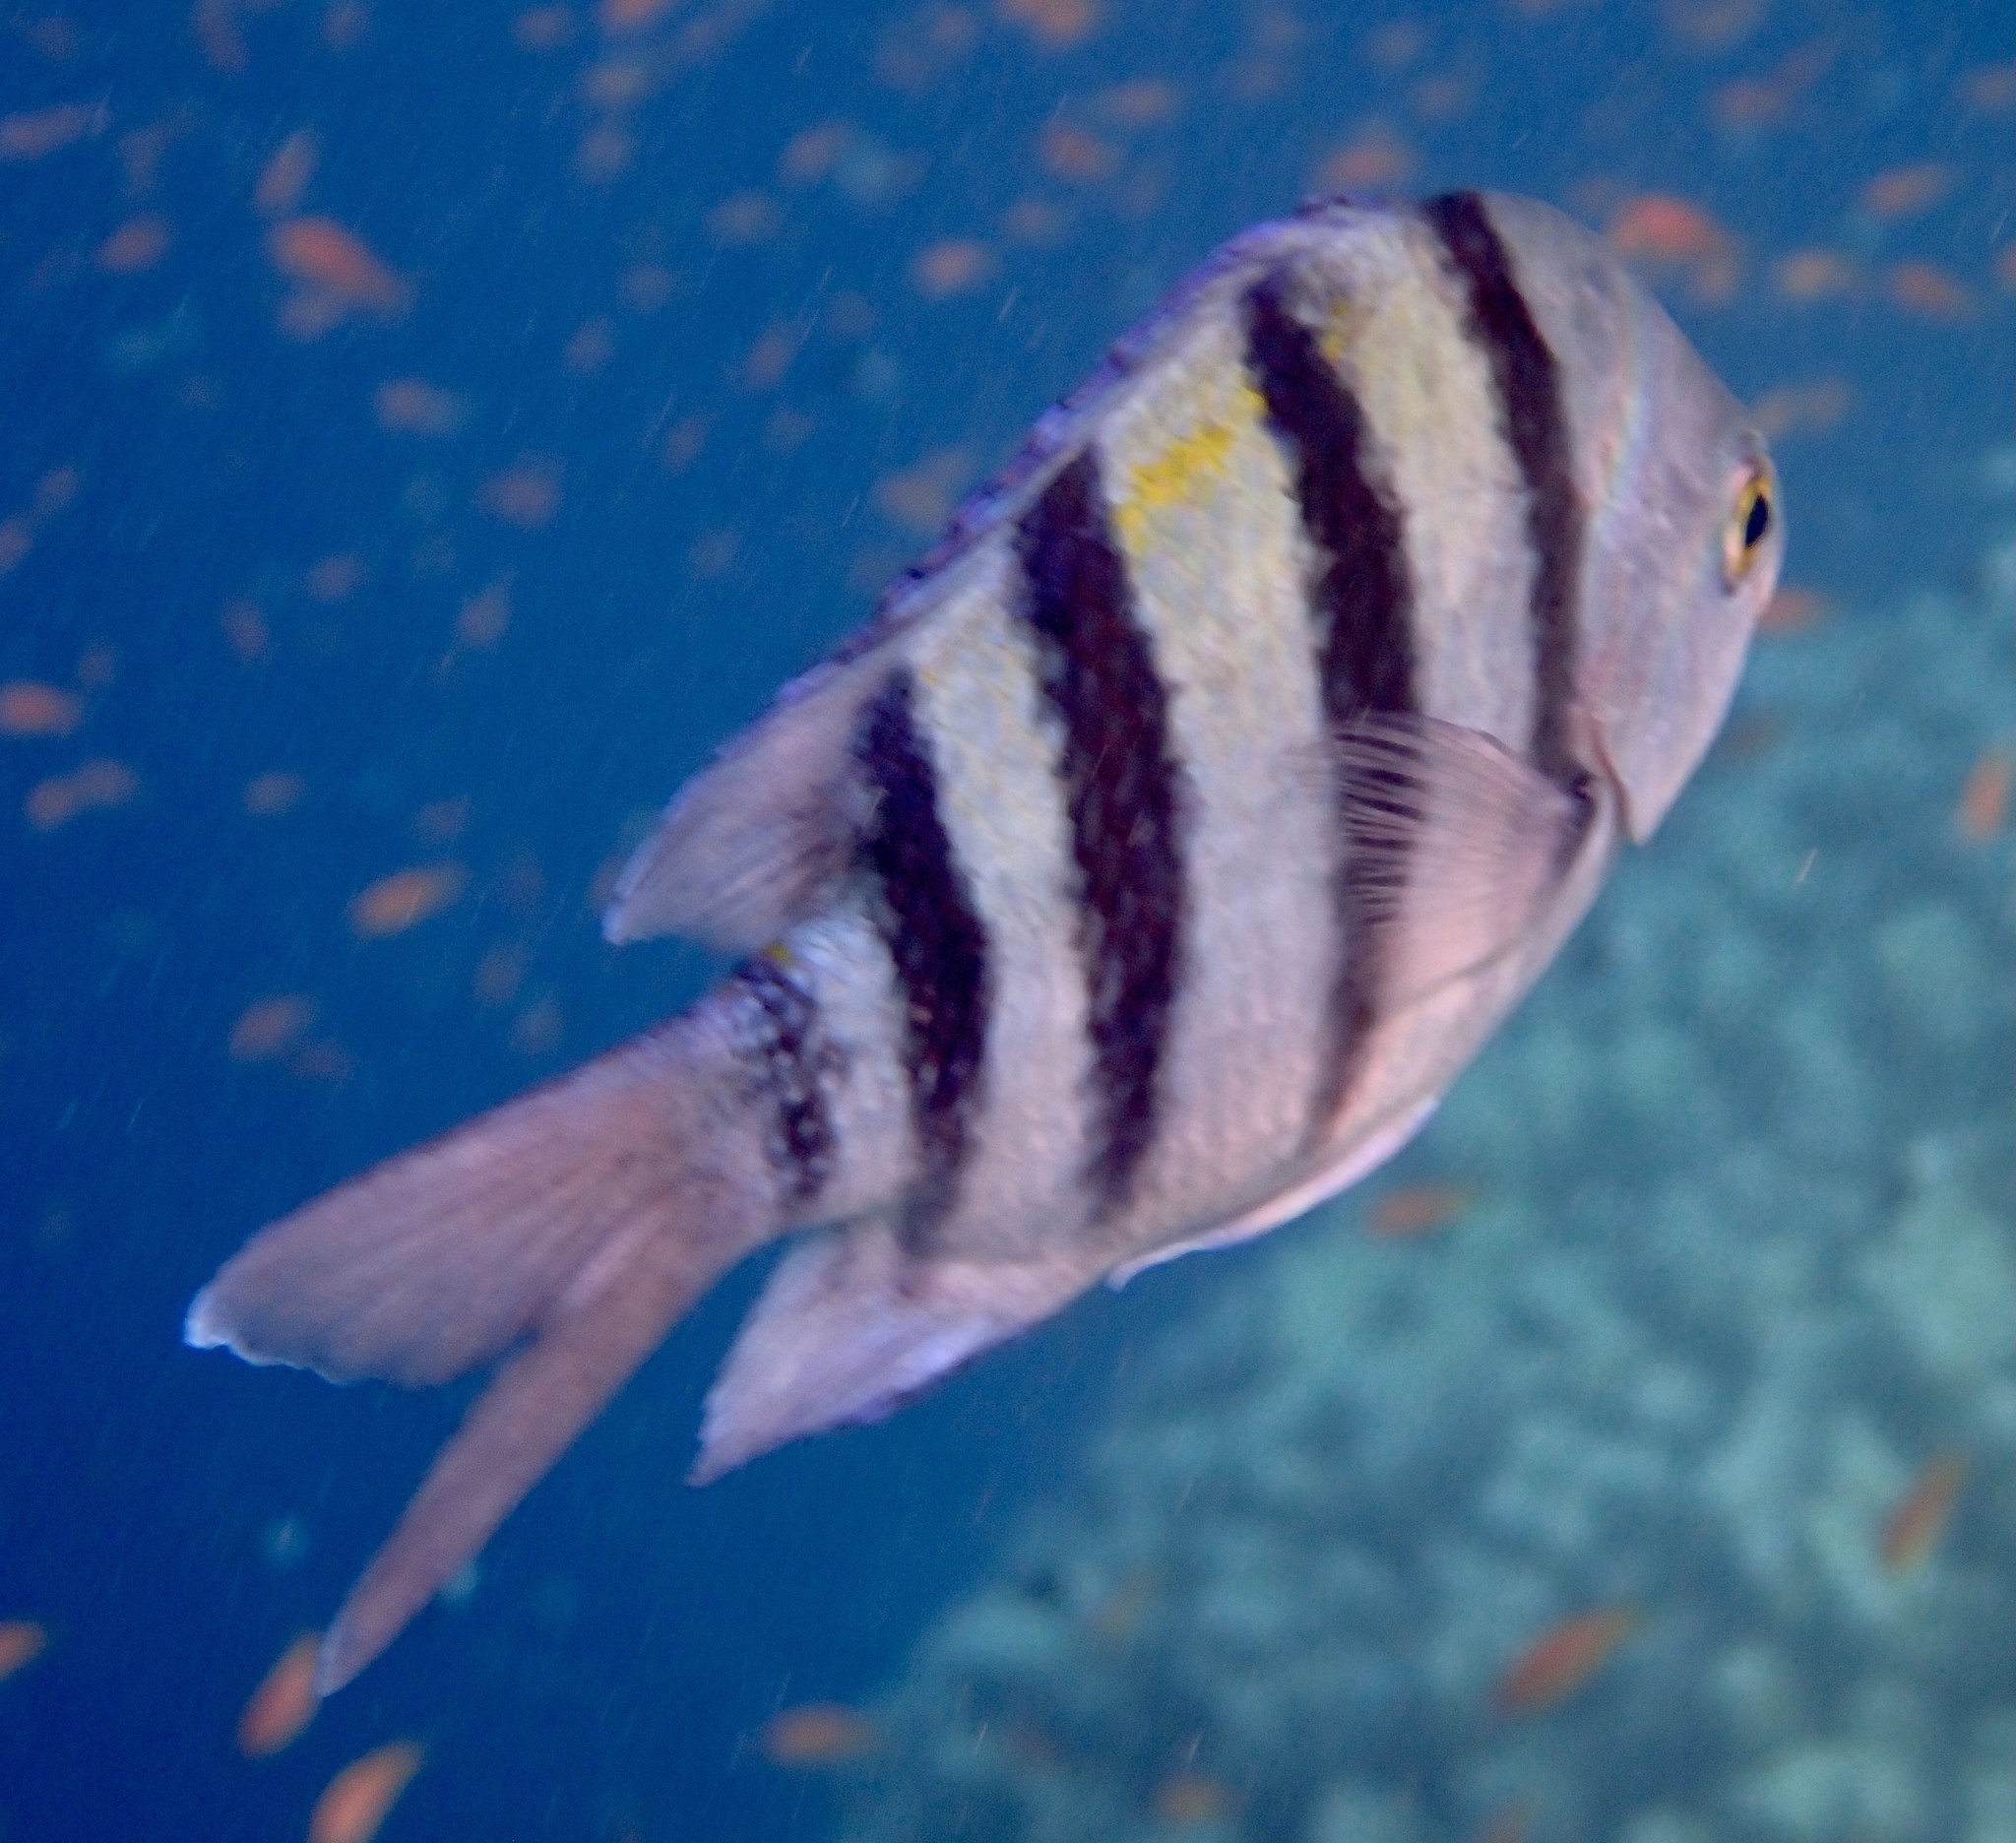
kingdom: Animalia
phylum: Chordata
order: Perciformes
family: Pomacentridae
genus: Abudefduf
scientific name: Abudefduf vaigiensis
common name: Indo-pacific sergeant
